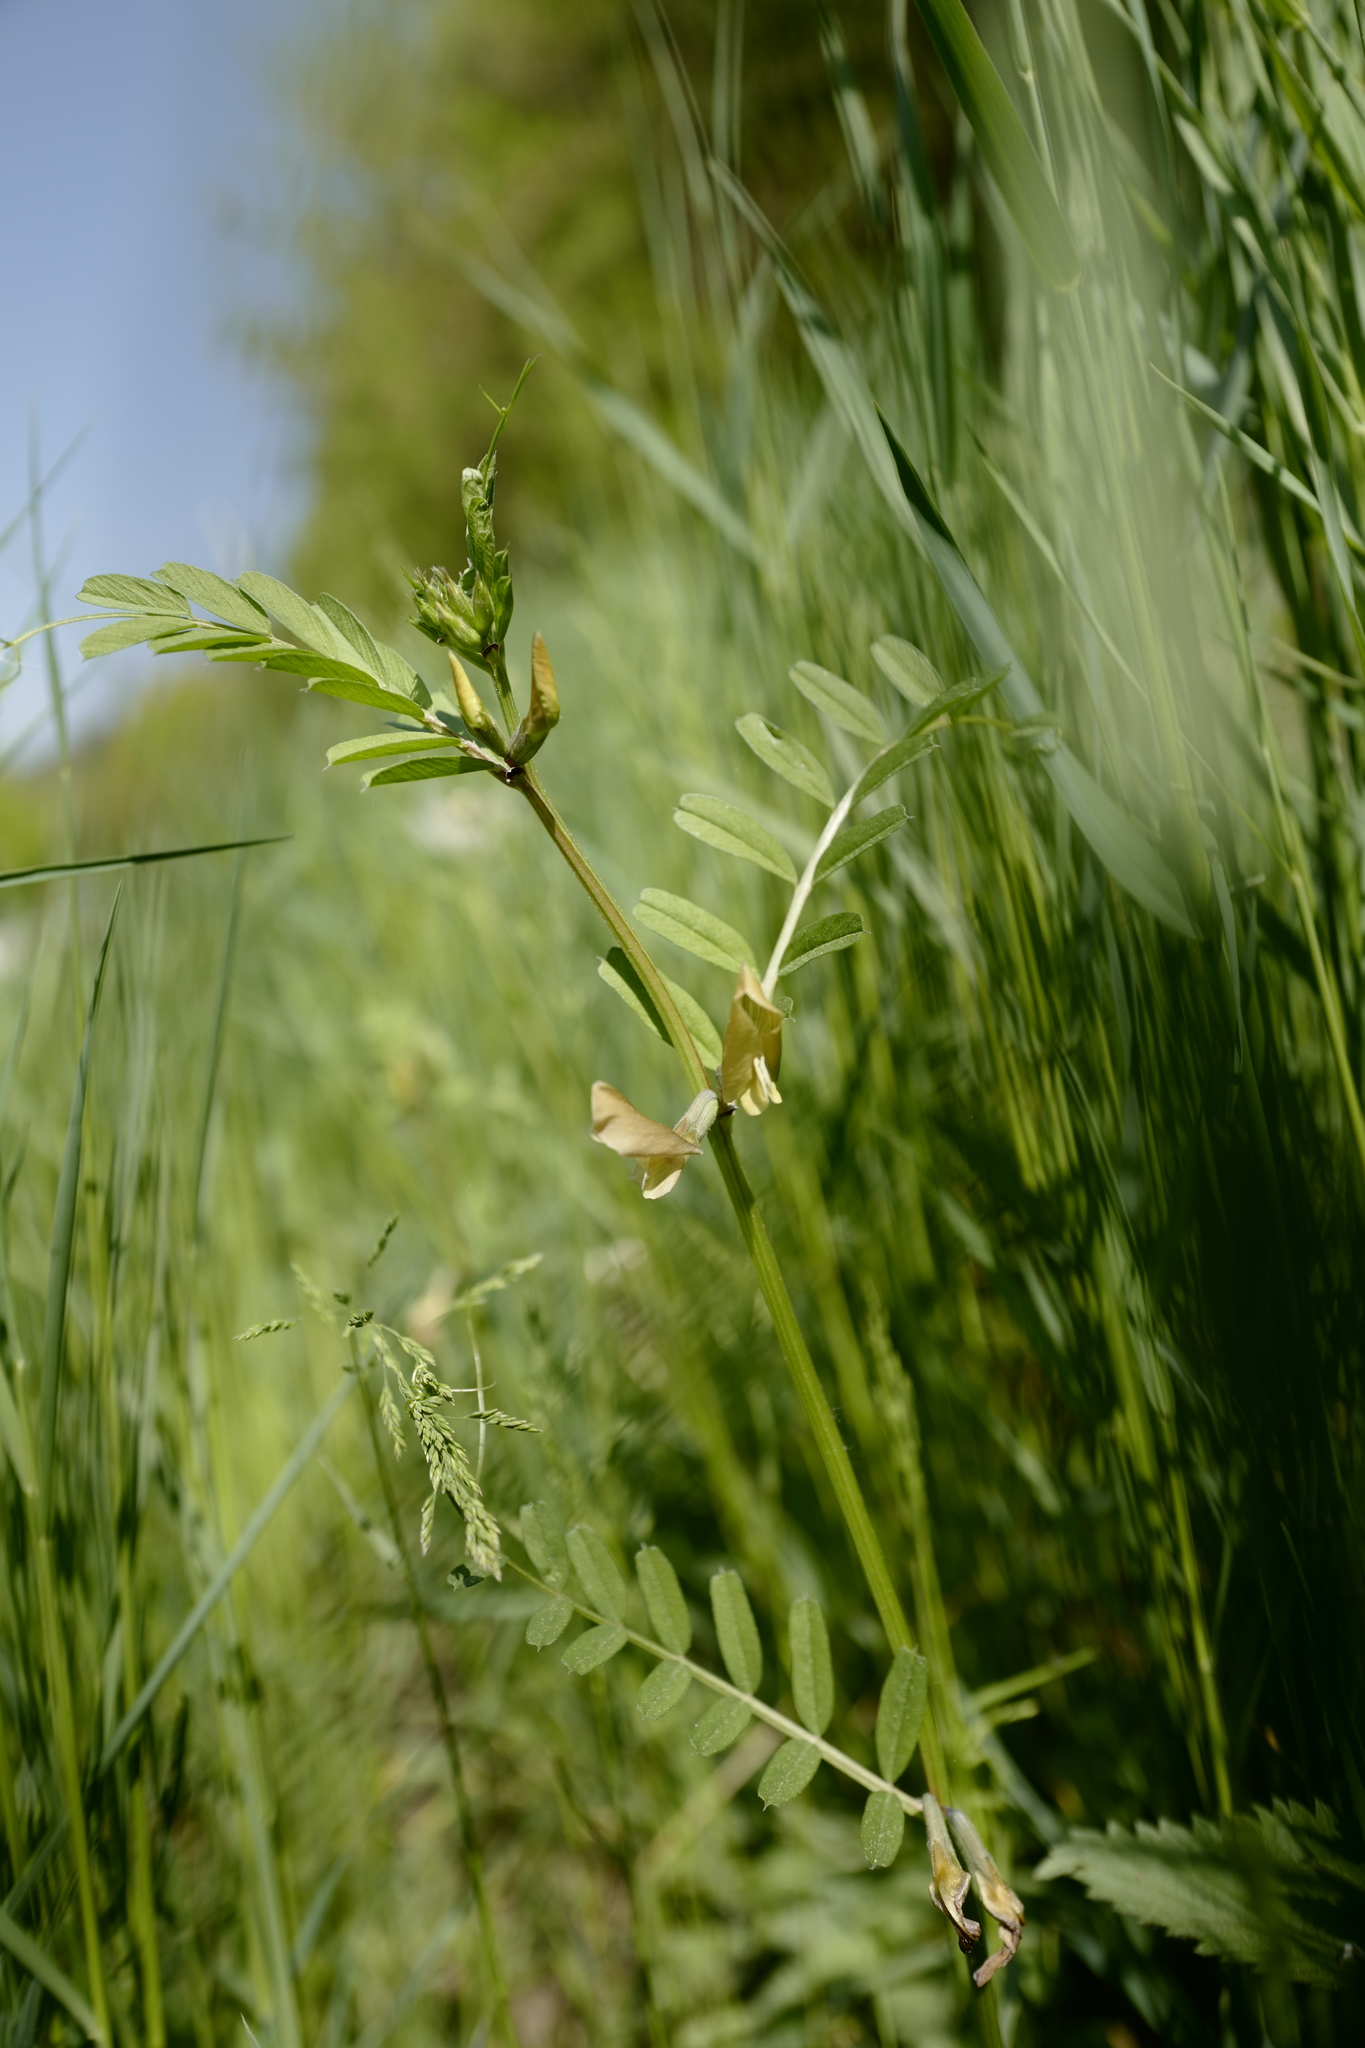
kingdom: Plantae
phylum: Tracheophyta
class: Magnoliopsida
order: Fabales
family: Fabaceae
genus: Vicia
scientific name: Vicia grandiflora
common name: Large yellow vetch
